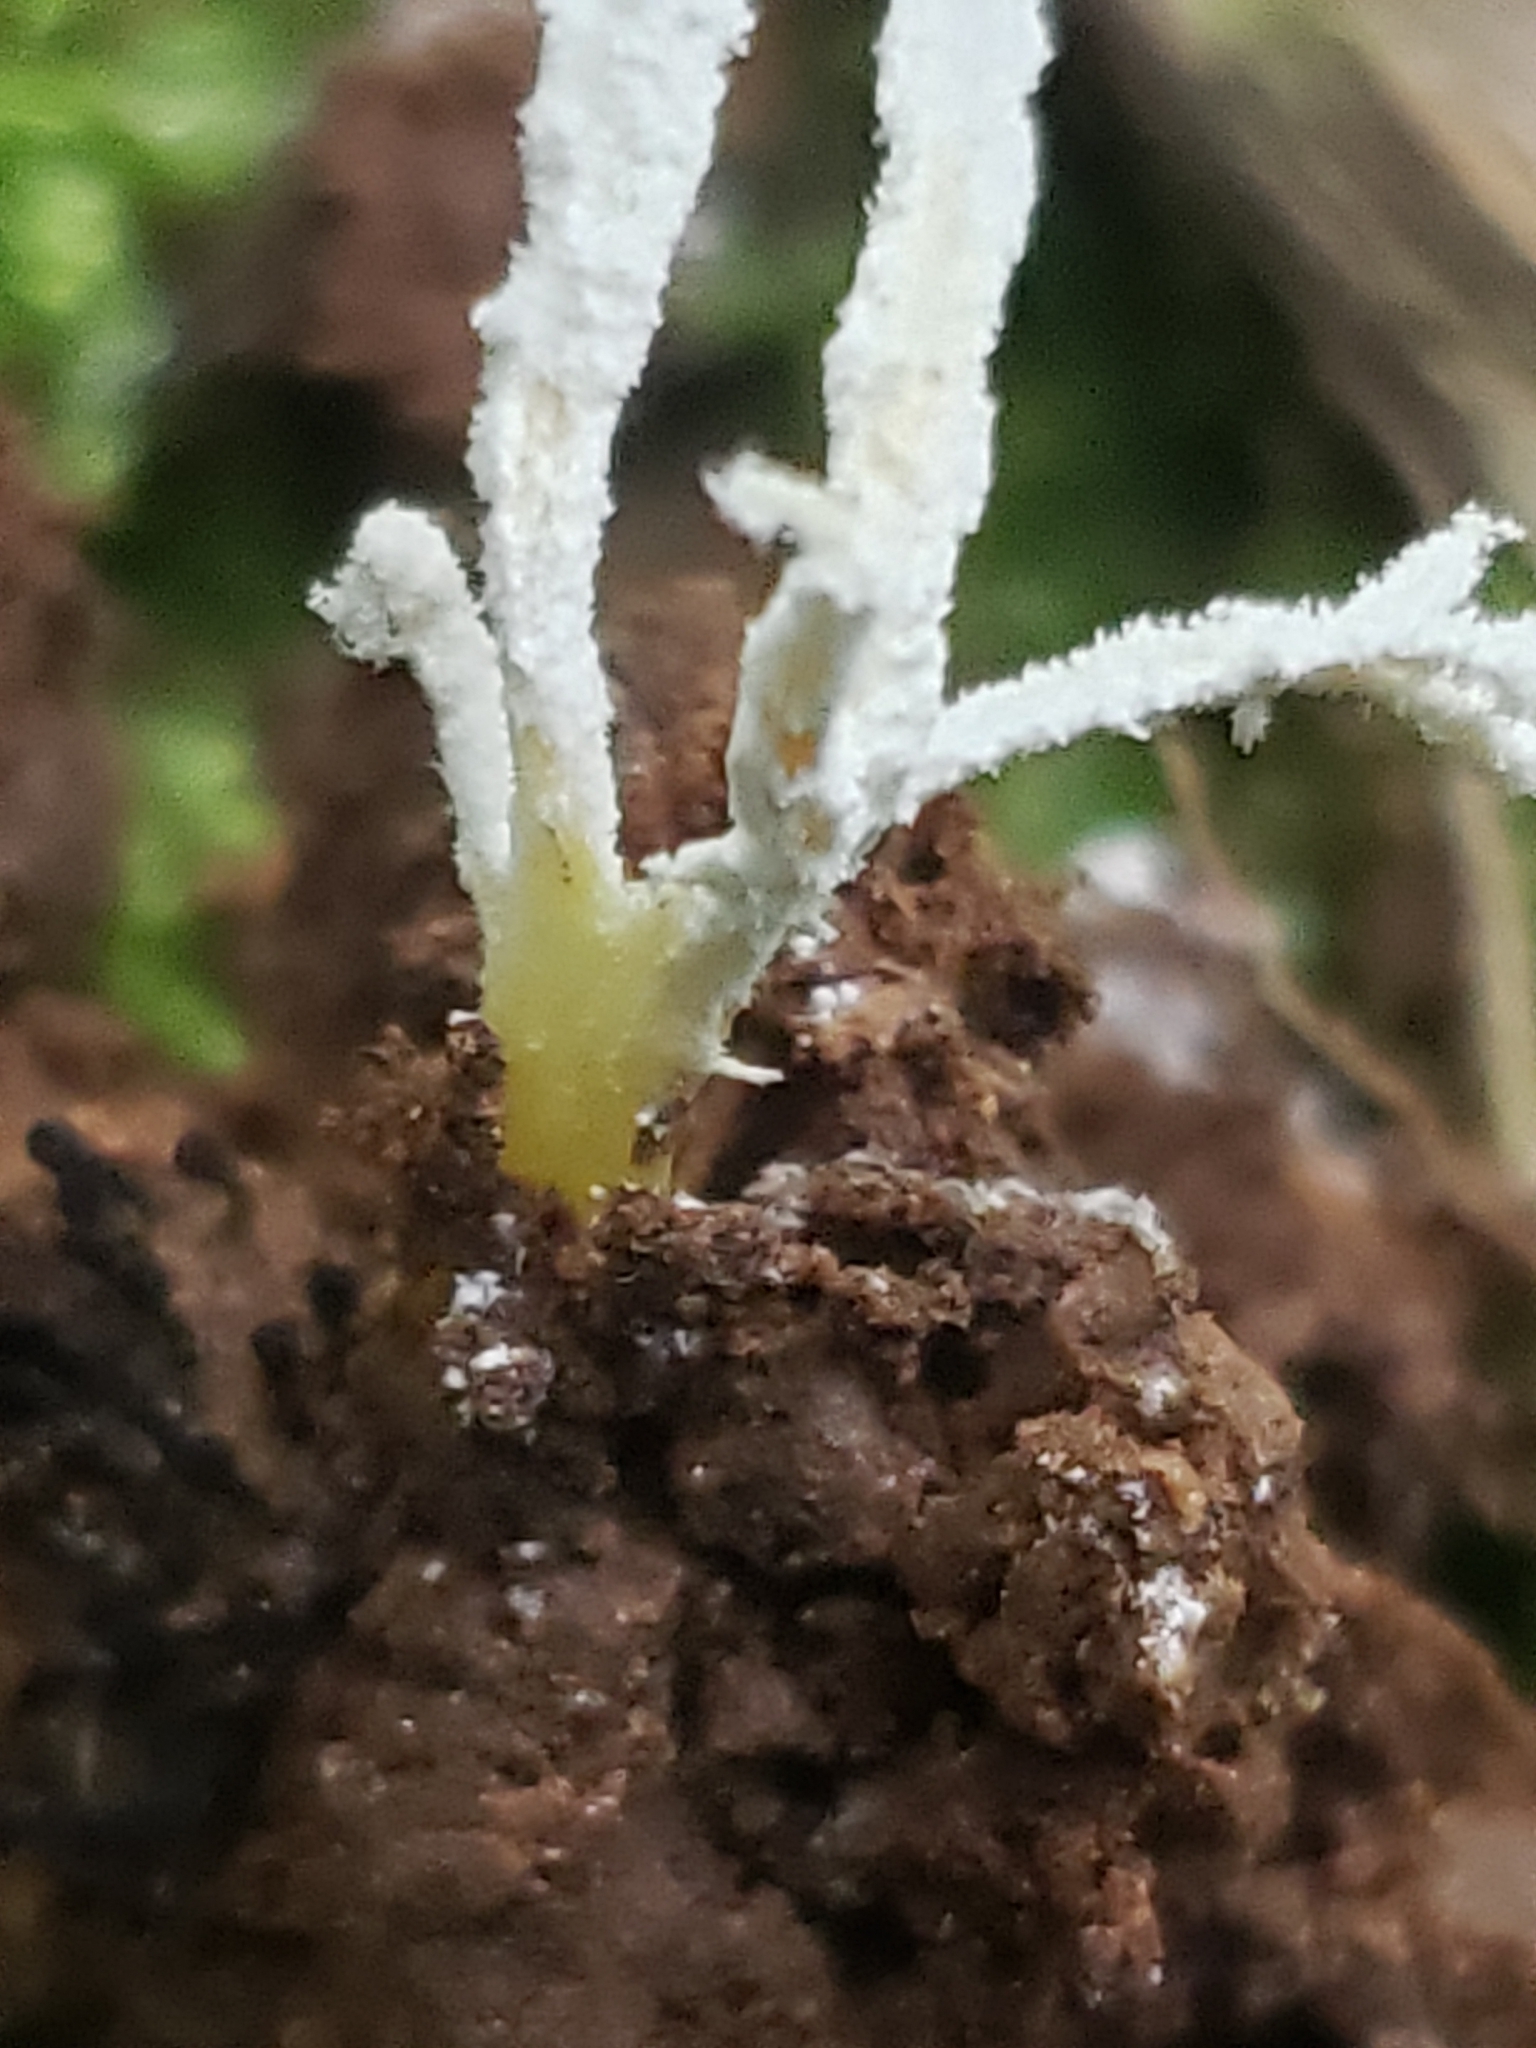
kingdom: Fungi
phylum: Ascomycota
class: Sordariomycetes
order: Hypocreales
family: Cordycipitaceae
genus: Cordyceps
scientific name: Cordyceps tenuipes
